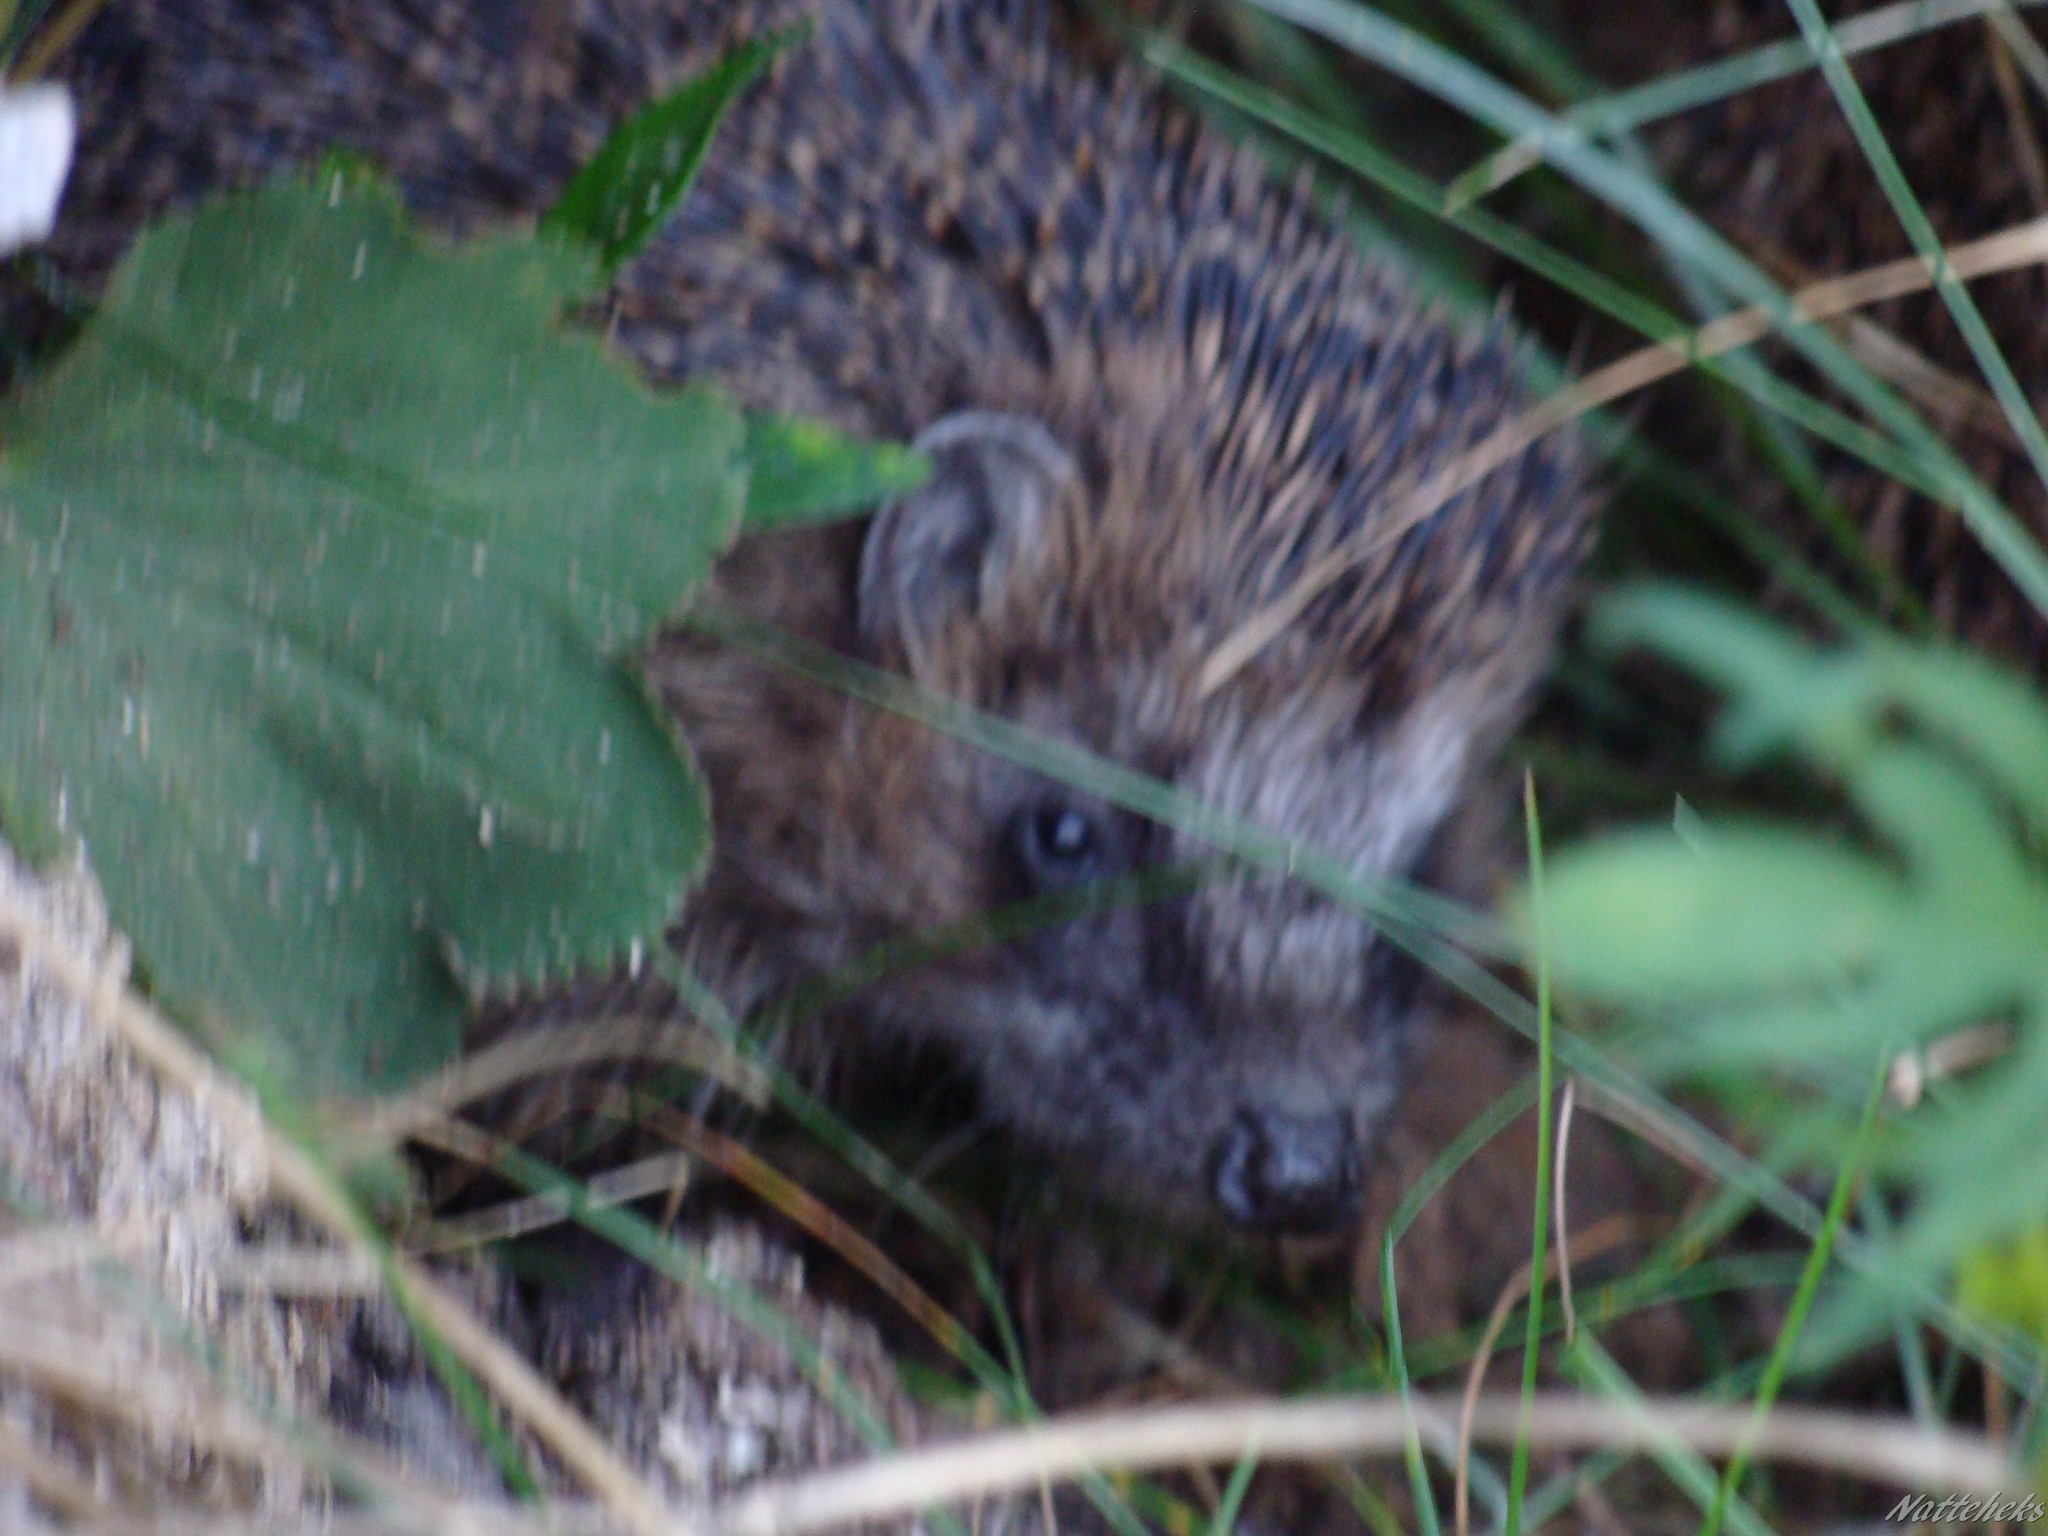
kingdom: Animalia
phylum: Chordata
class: Mammalia
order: Erinaceomorpha
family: Erinaceidae
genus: Erinaceus
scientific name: Erinaceus europaeus
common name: West european hedgehog
